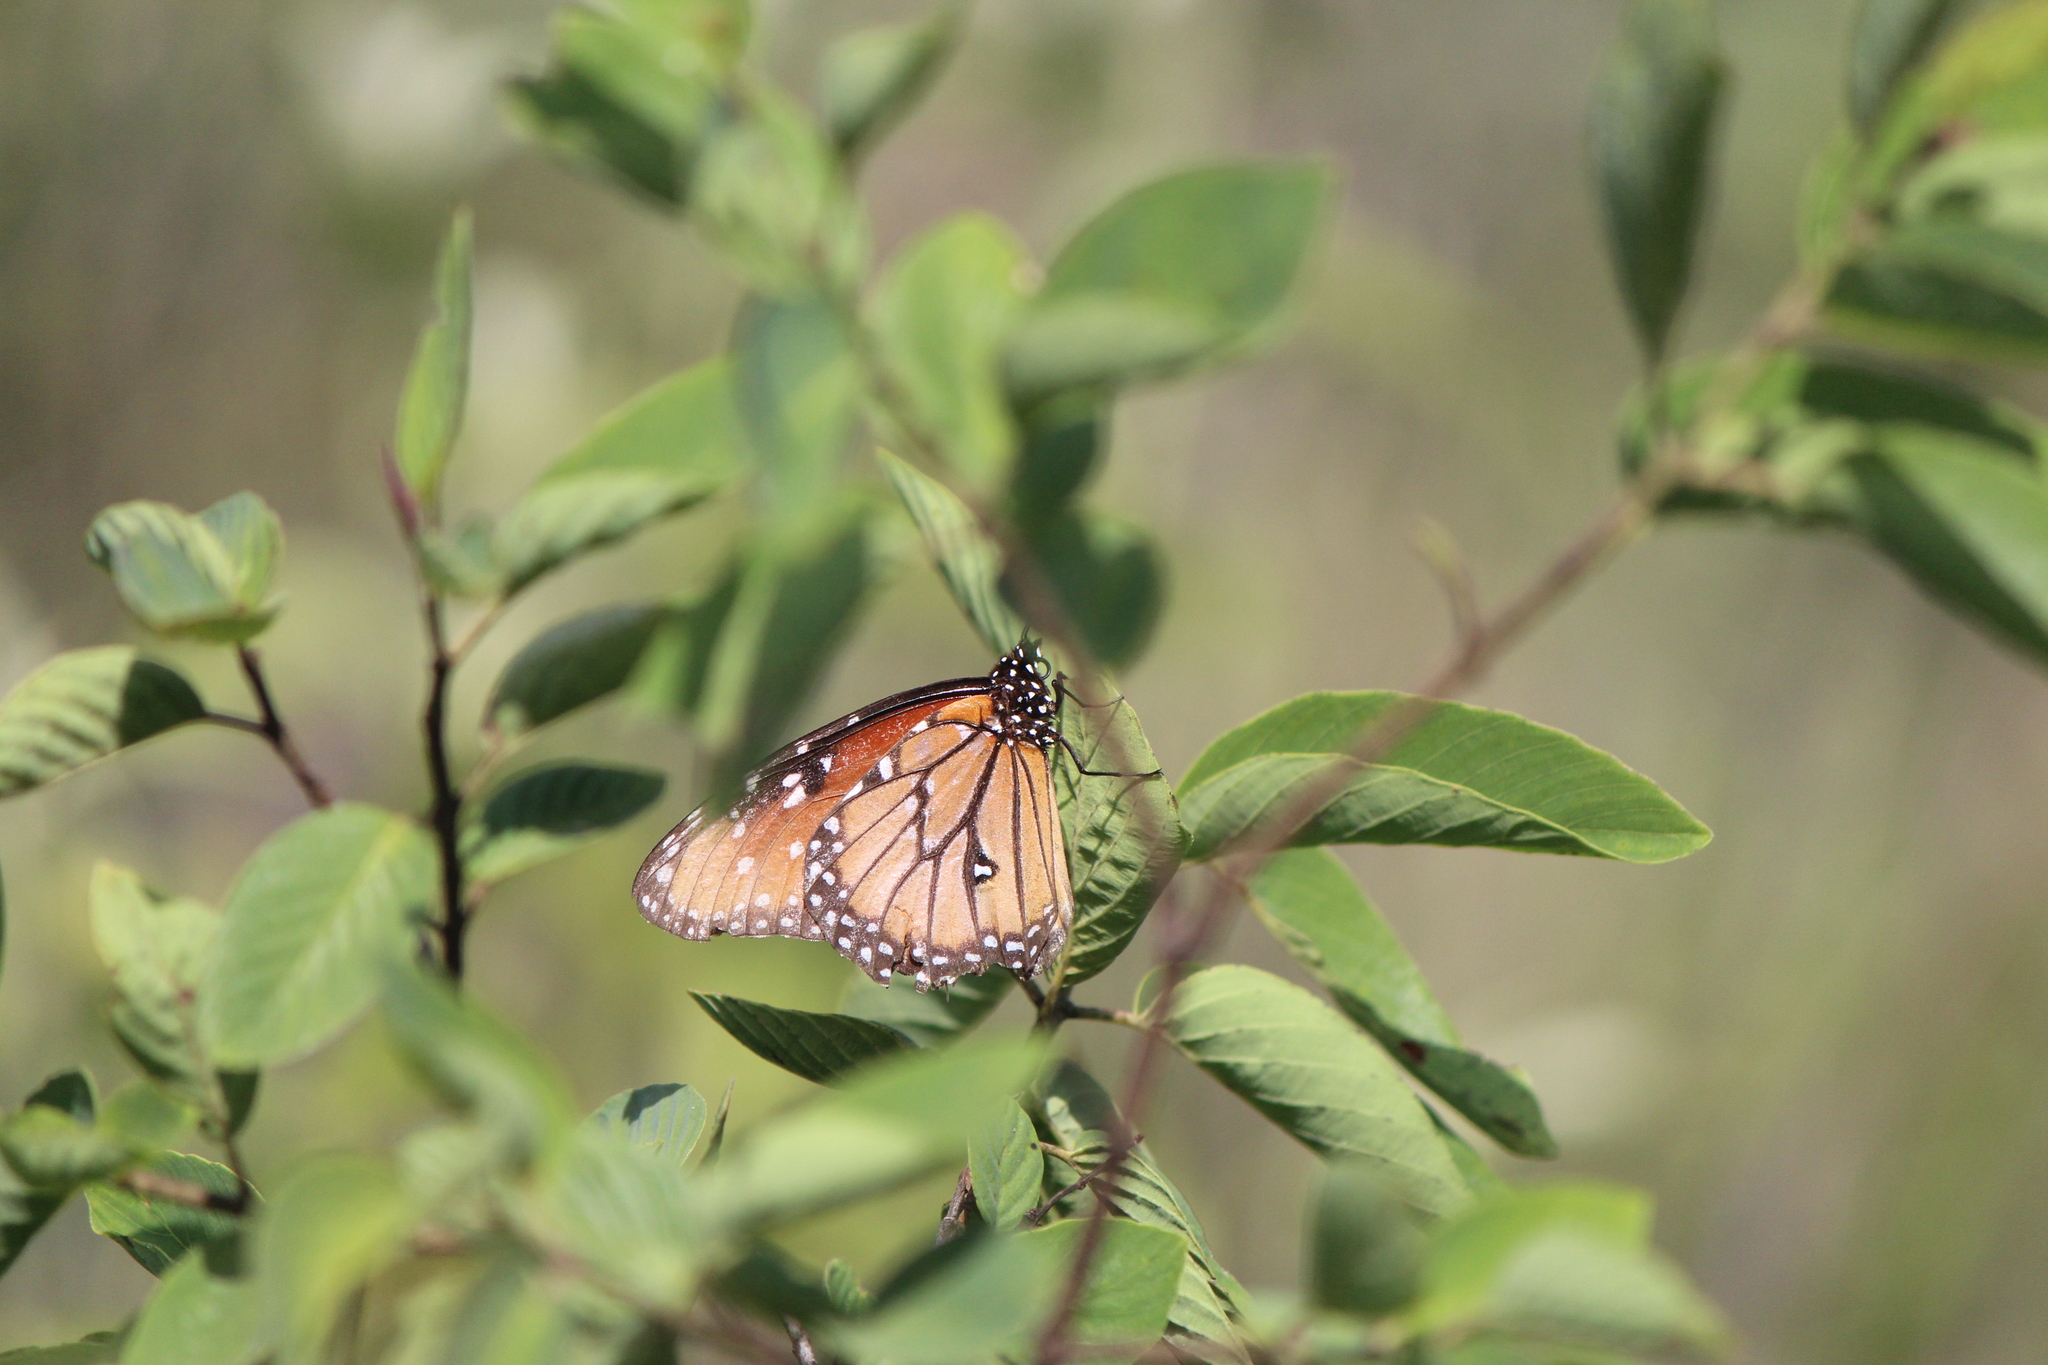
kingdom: Animalia
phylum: Arthropoda
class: Insecta
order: Lepidoptera
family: Nymphalidae
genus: Danaus
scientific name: Danaus gilippus
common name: Queen
